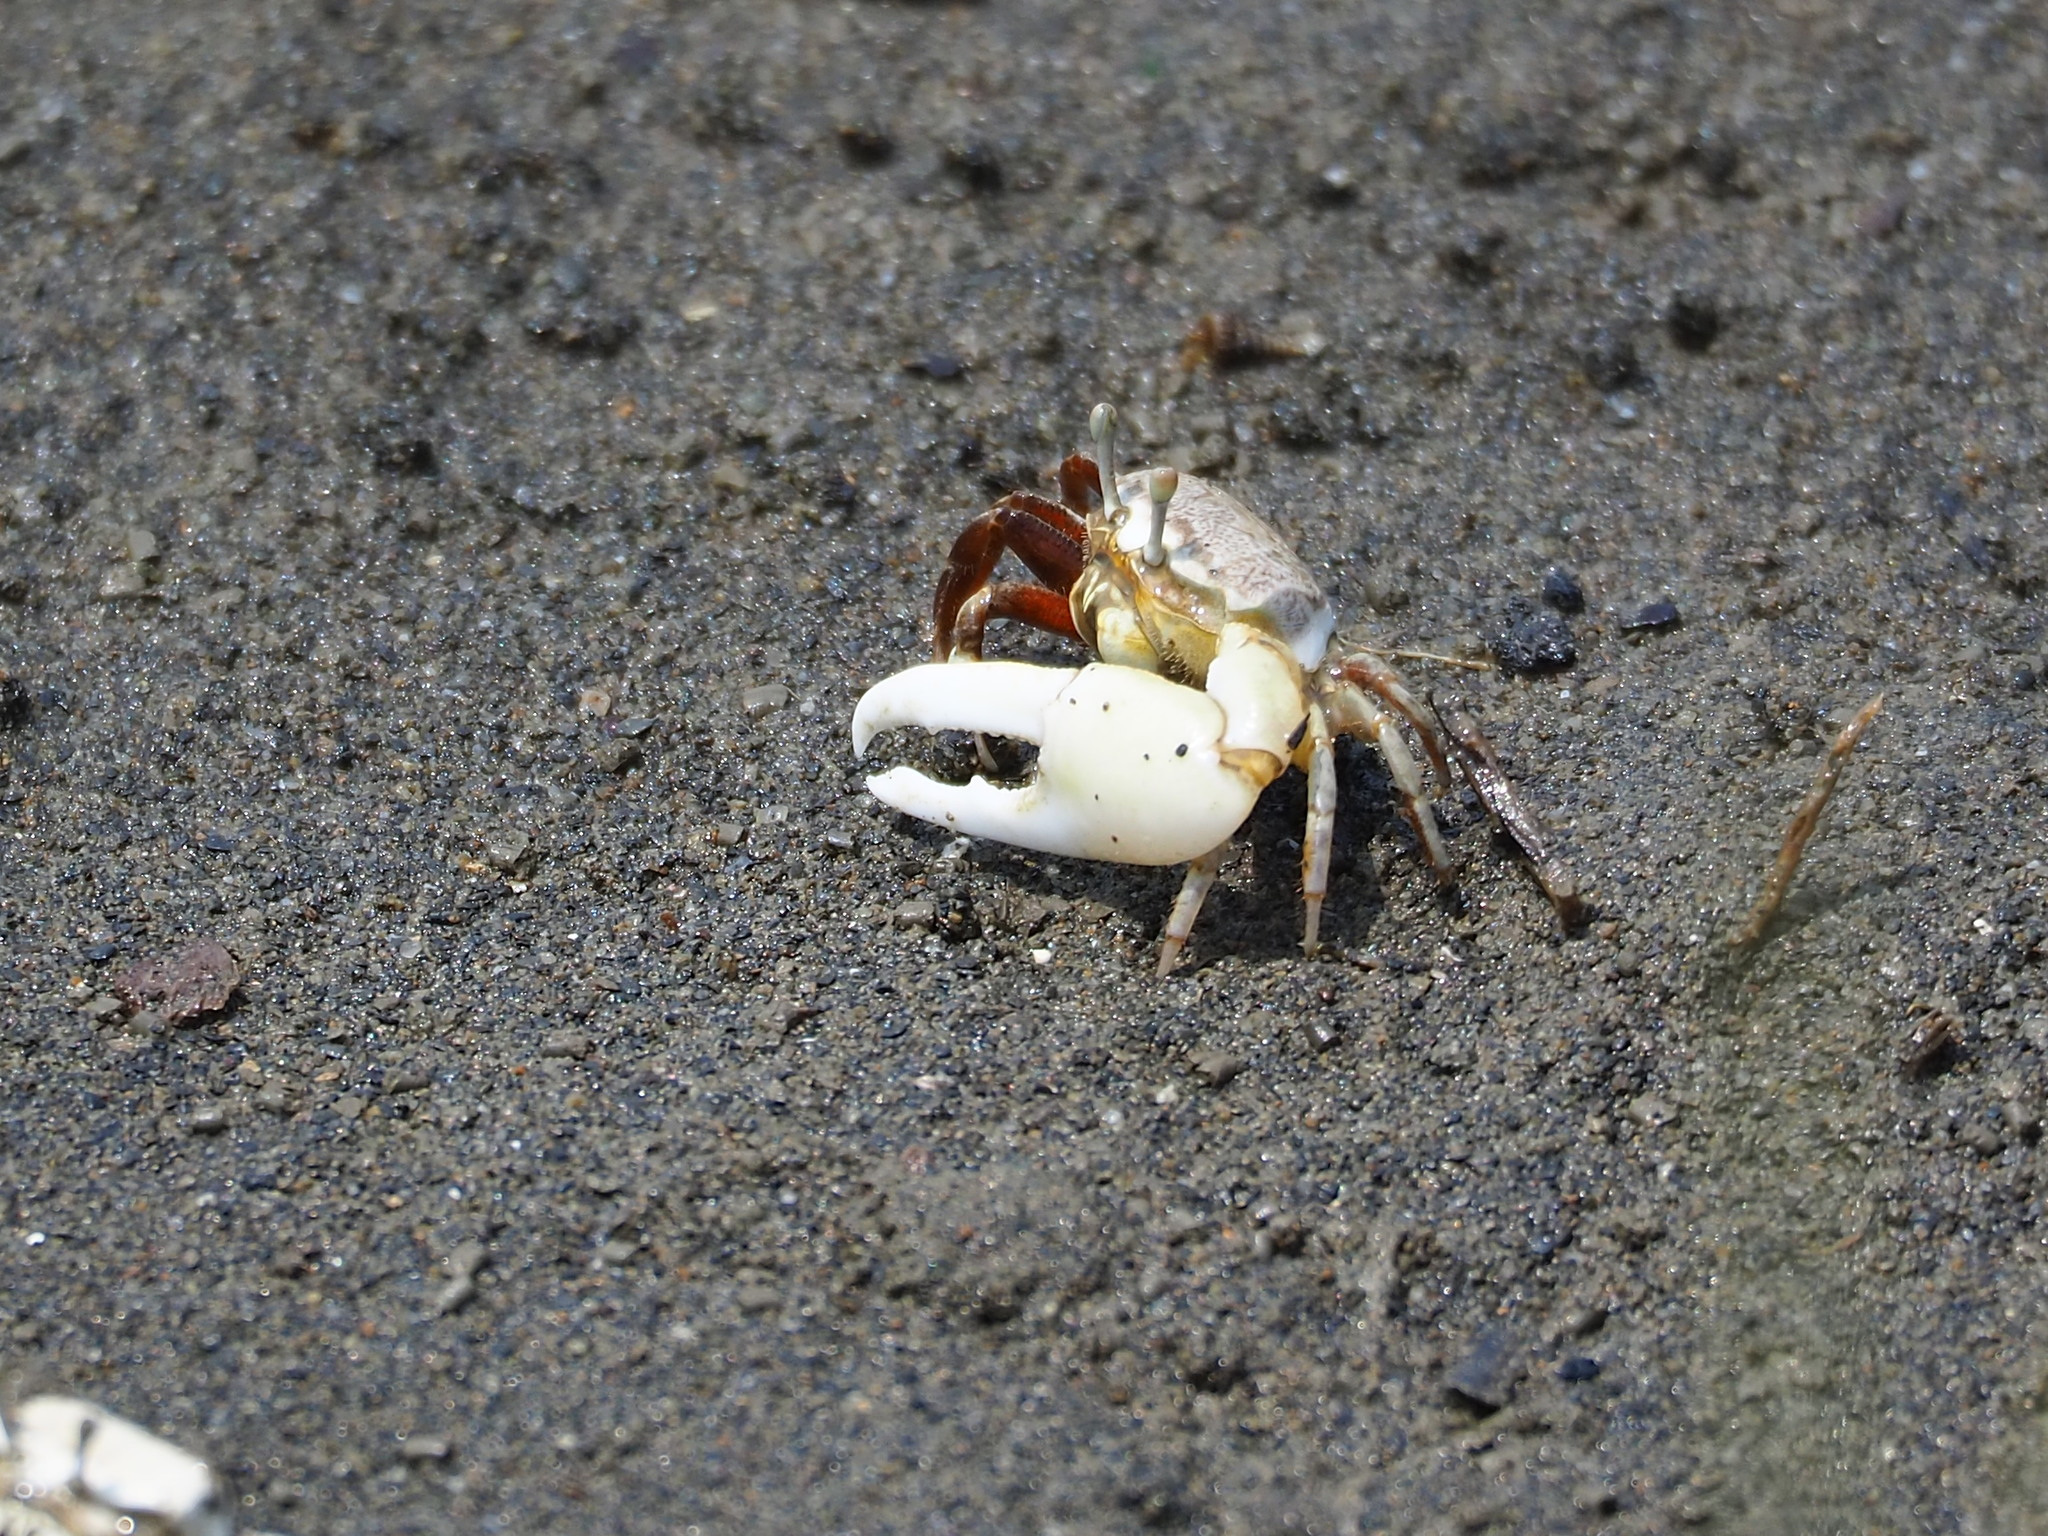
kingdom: Animalia
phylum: Arthropoda
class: Malacostraca
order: Decapoda
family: Ocypodidae
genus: Austruca
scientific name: Austruca lactea
